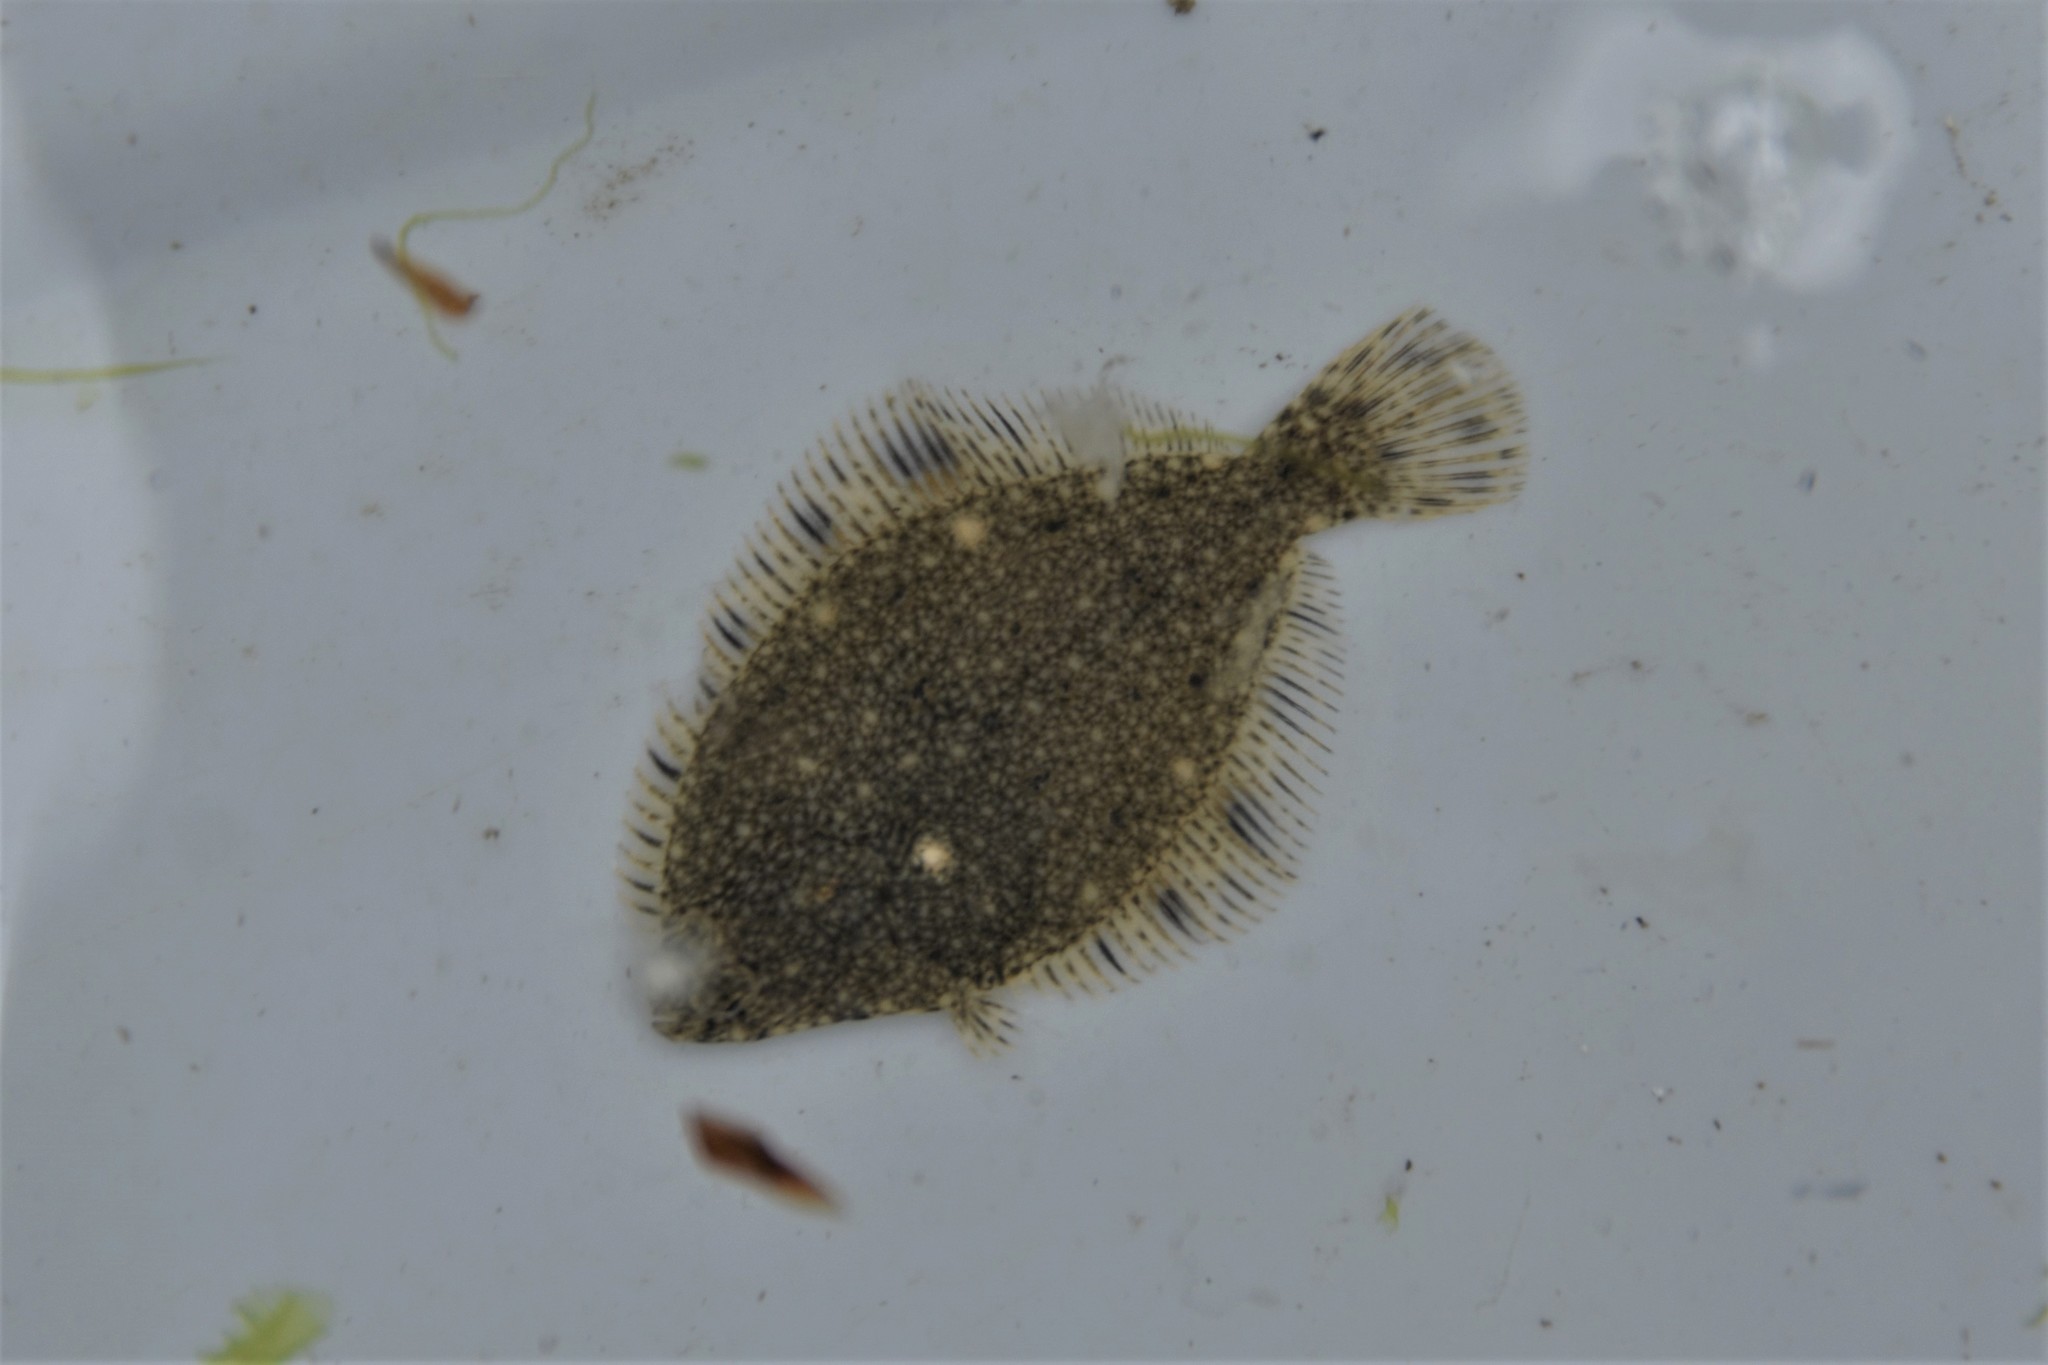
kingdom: Animalia
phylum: Chordata
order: Pleuronectiformes
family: Pleuronectidae
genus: Platichthys
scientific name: Platichthys stellatus
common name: Starry flounder
